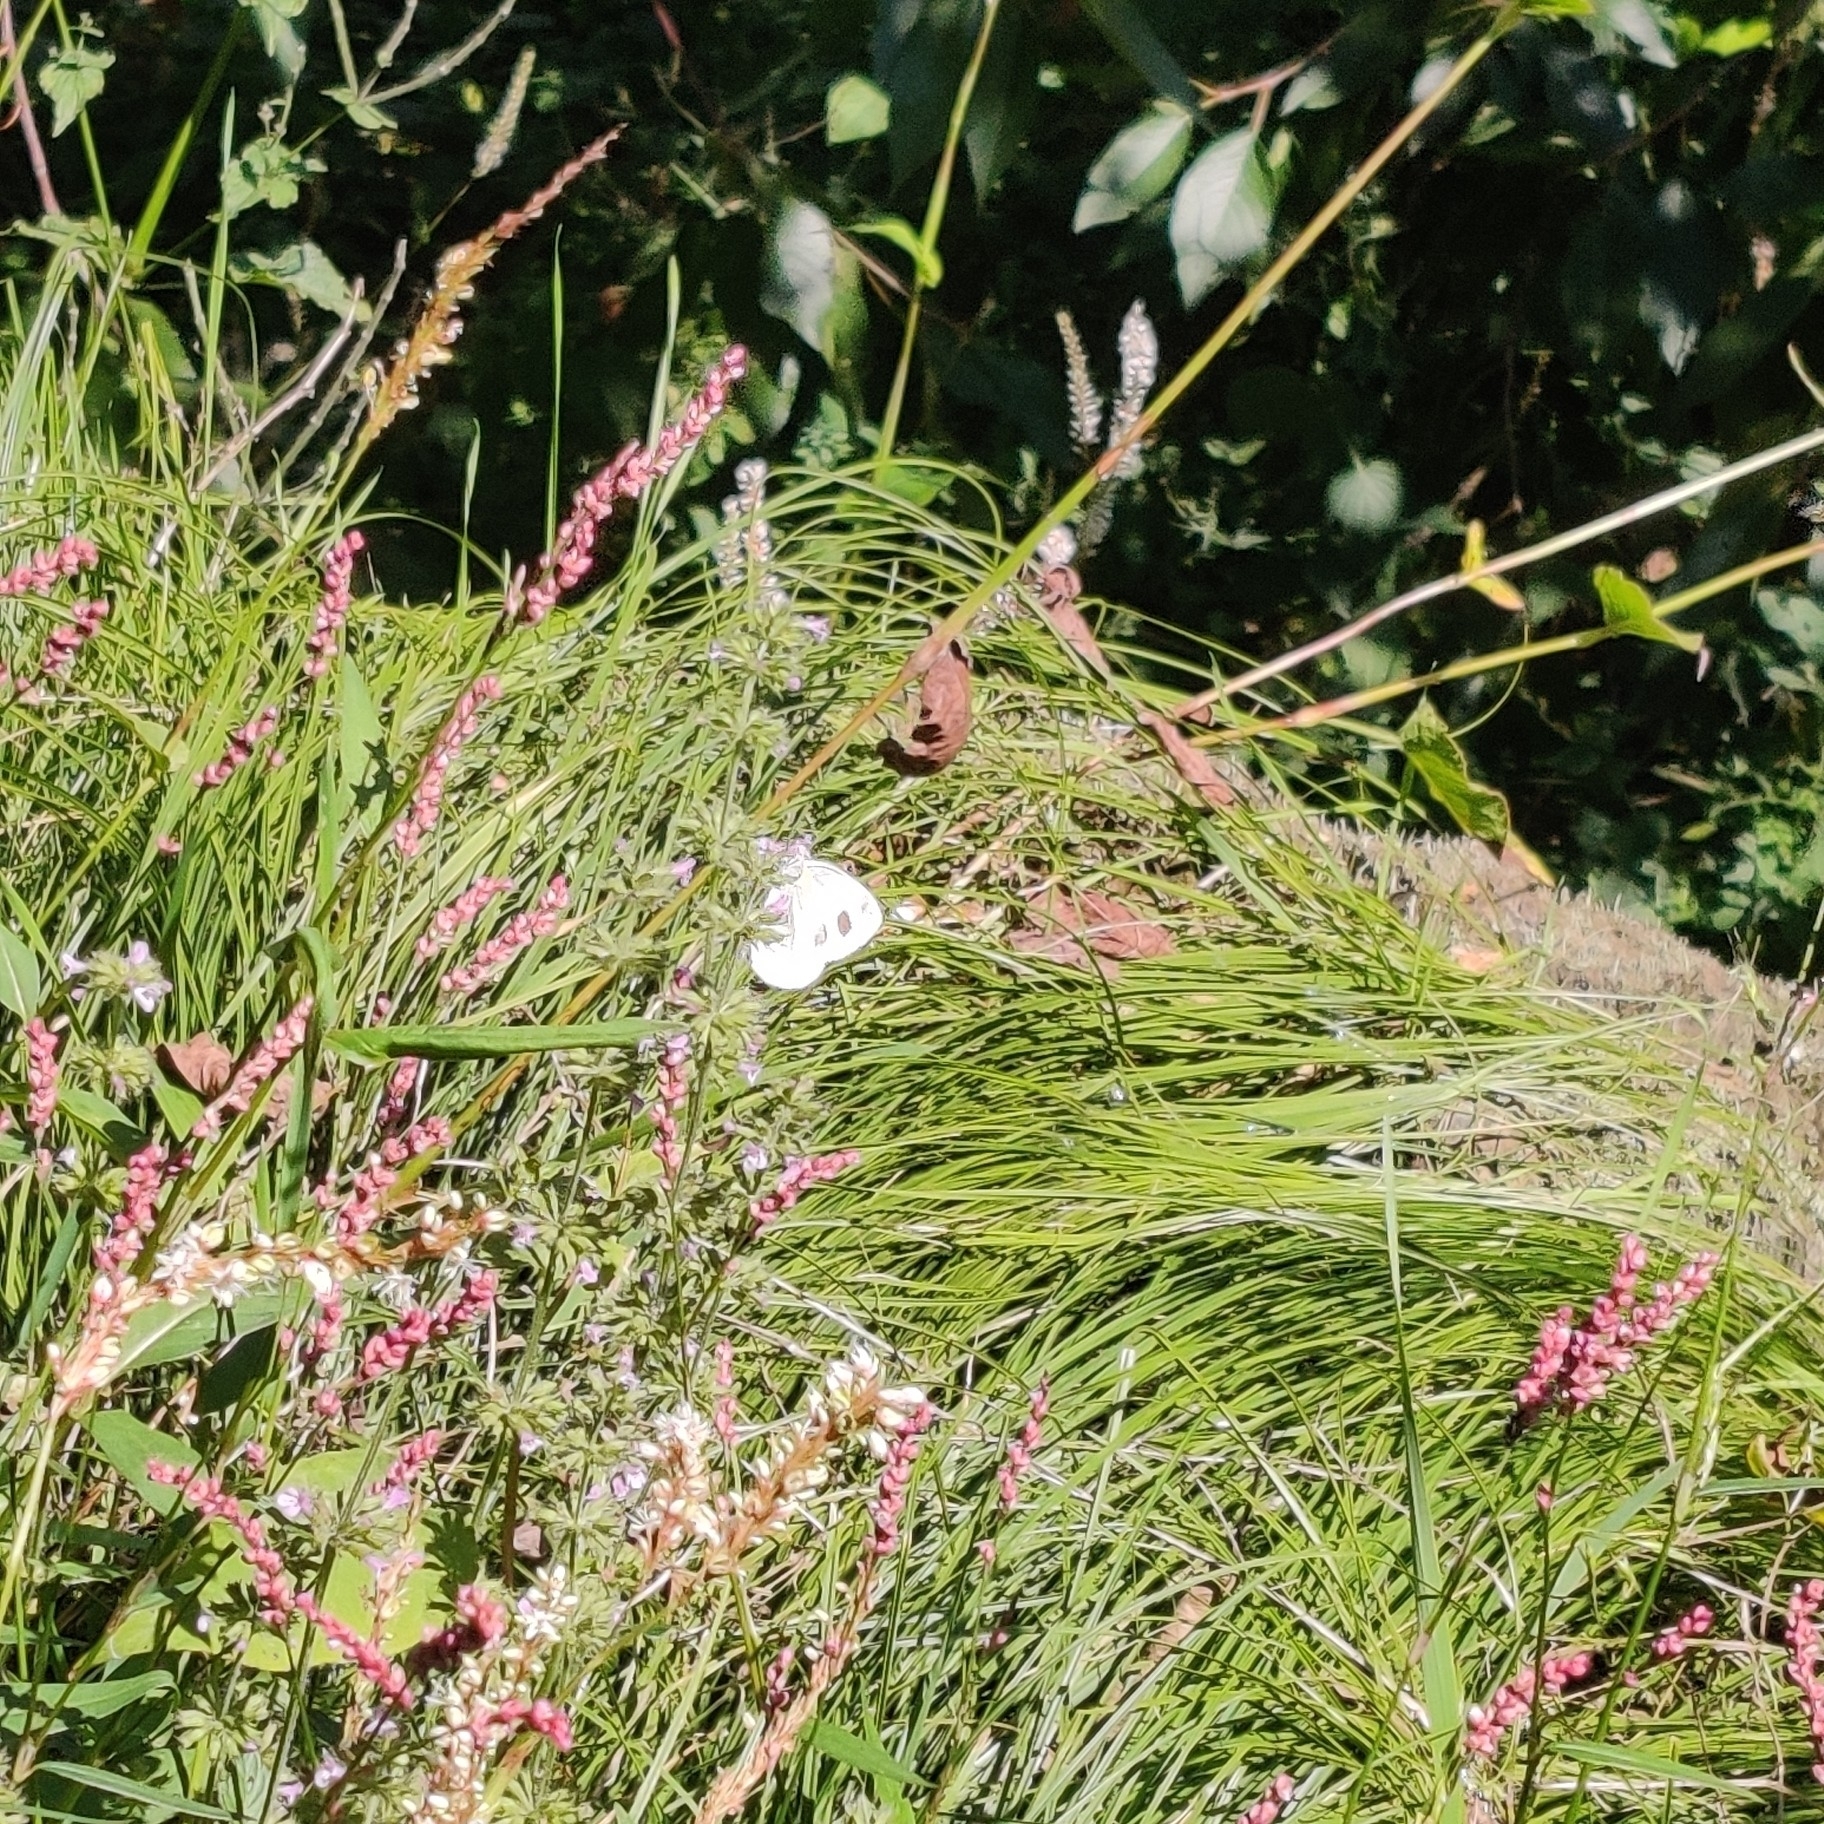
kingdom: Animalia
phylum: Arthropoda
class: Insecta
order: Lepidoptera
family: Pieridae
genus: Pieris
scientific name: Pieris canidia
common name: Indian cabbage white
